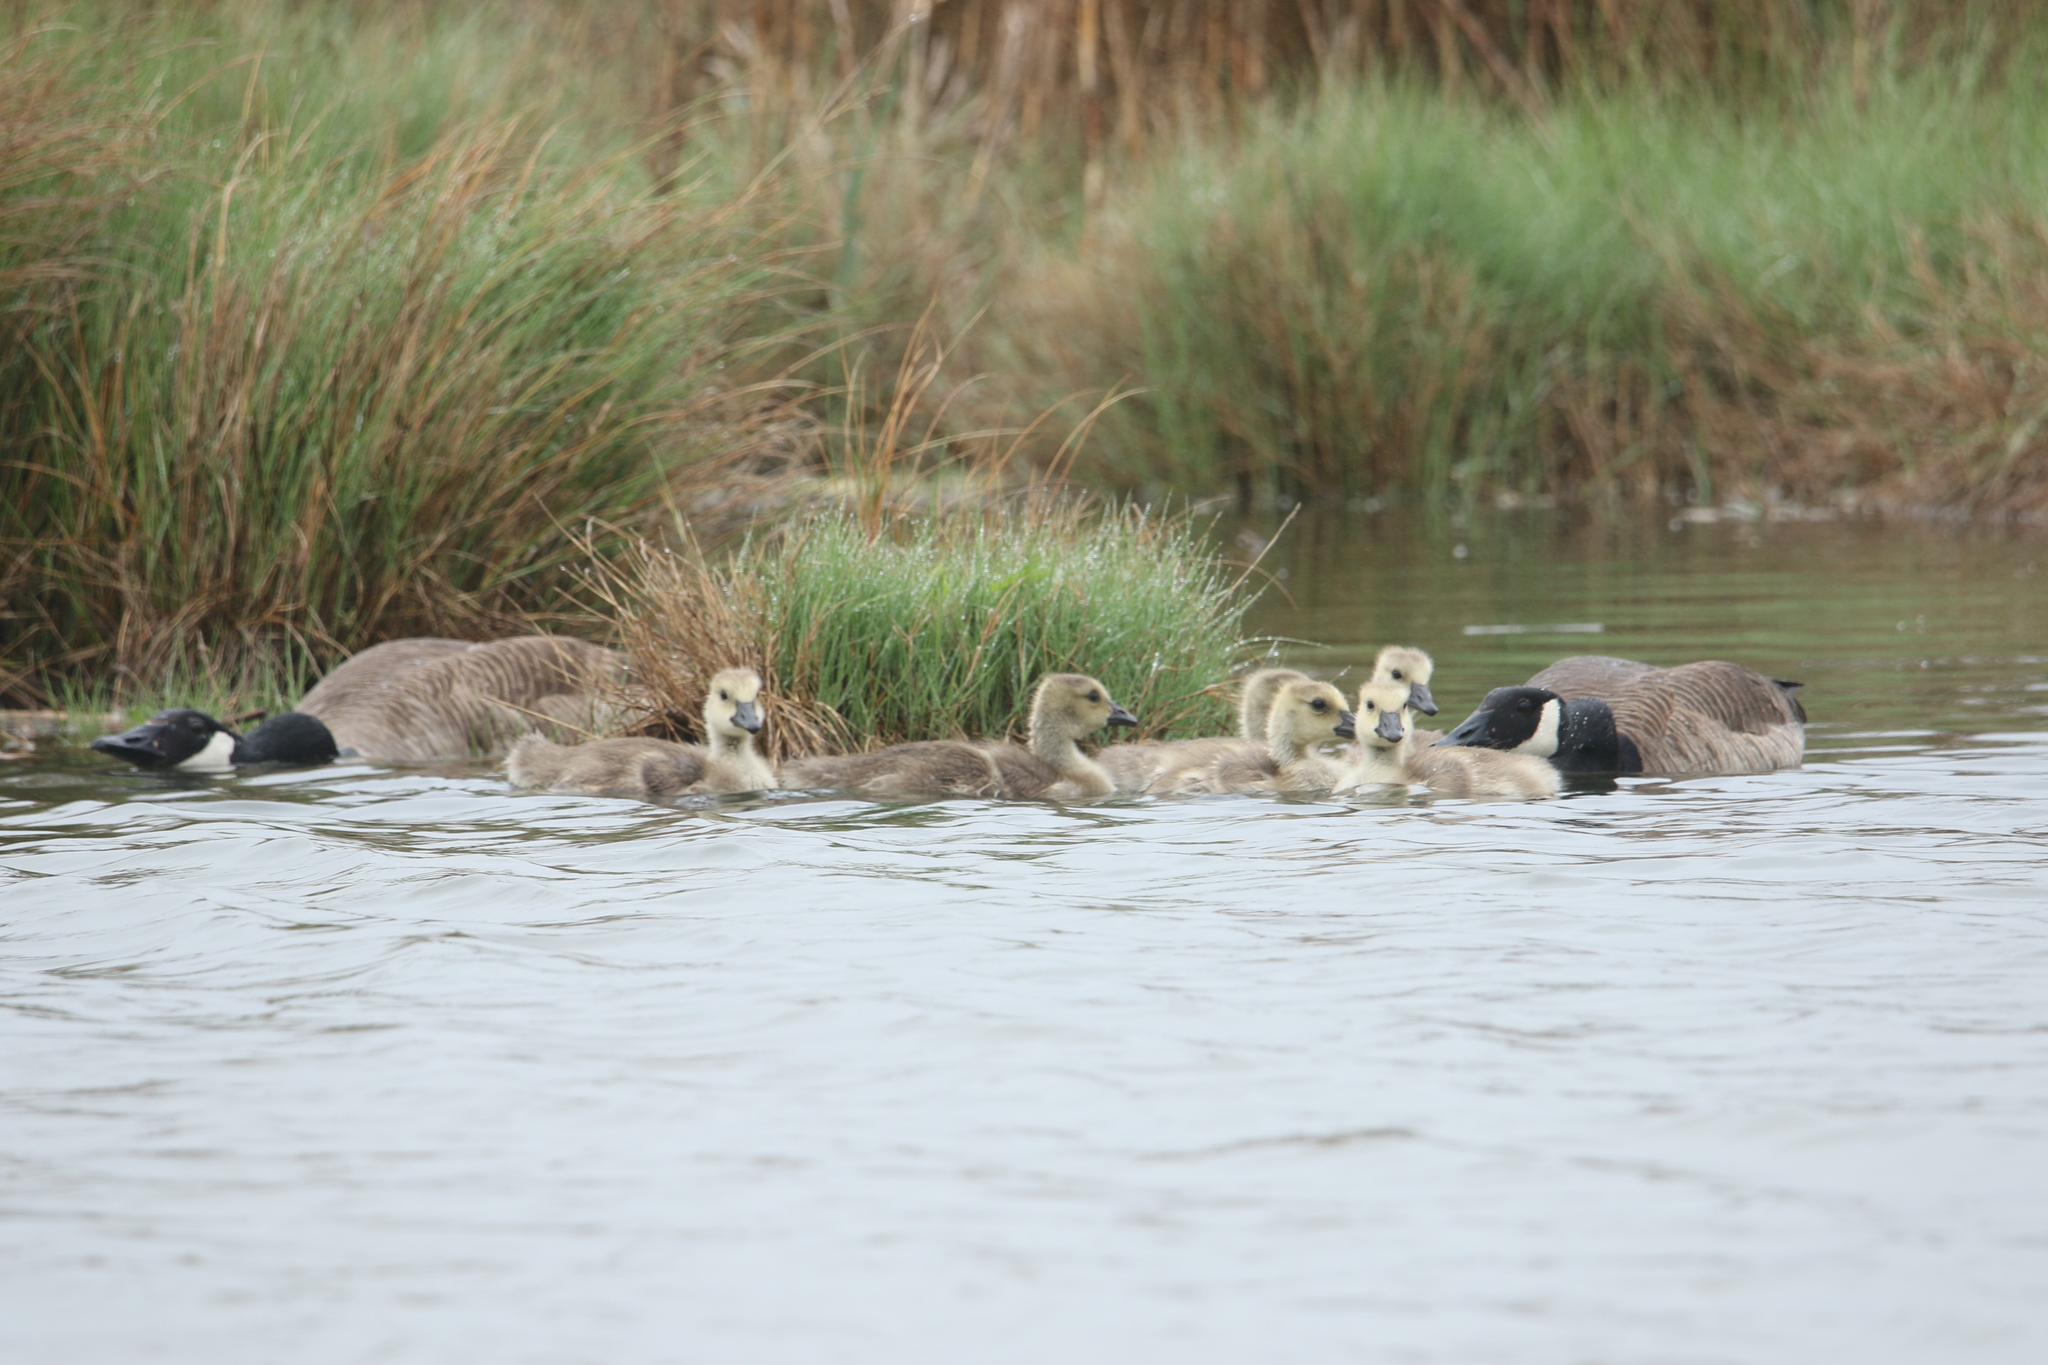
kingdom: Animalia
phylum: Chordata
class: Aves
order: Anseriformes
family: Anatidae
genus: Branta
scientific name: Branta canadensis
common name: Canada goose
